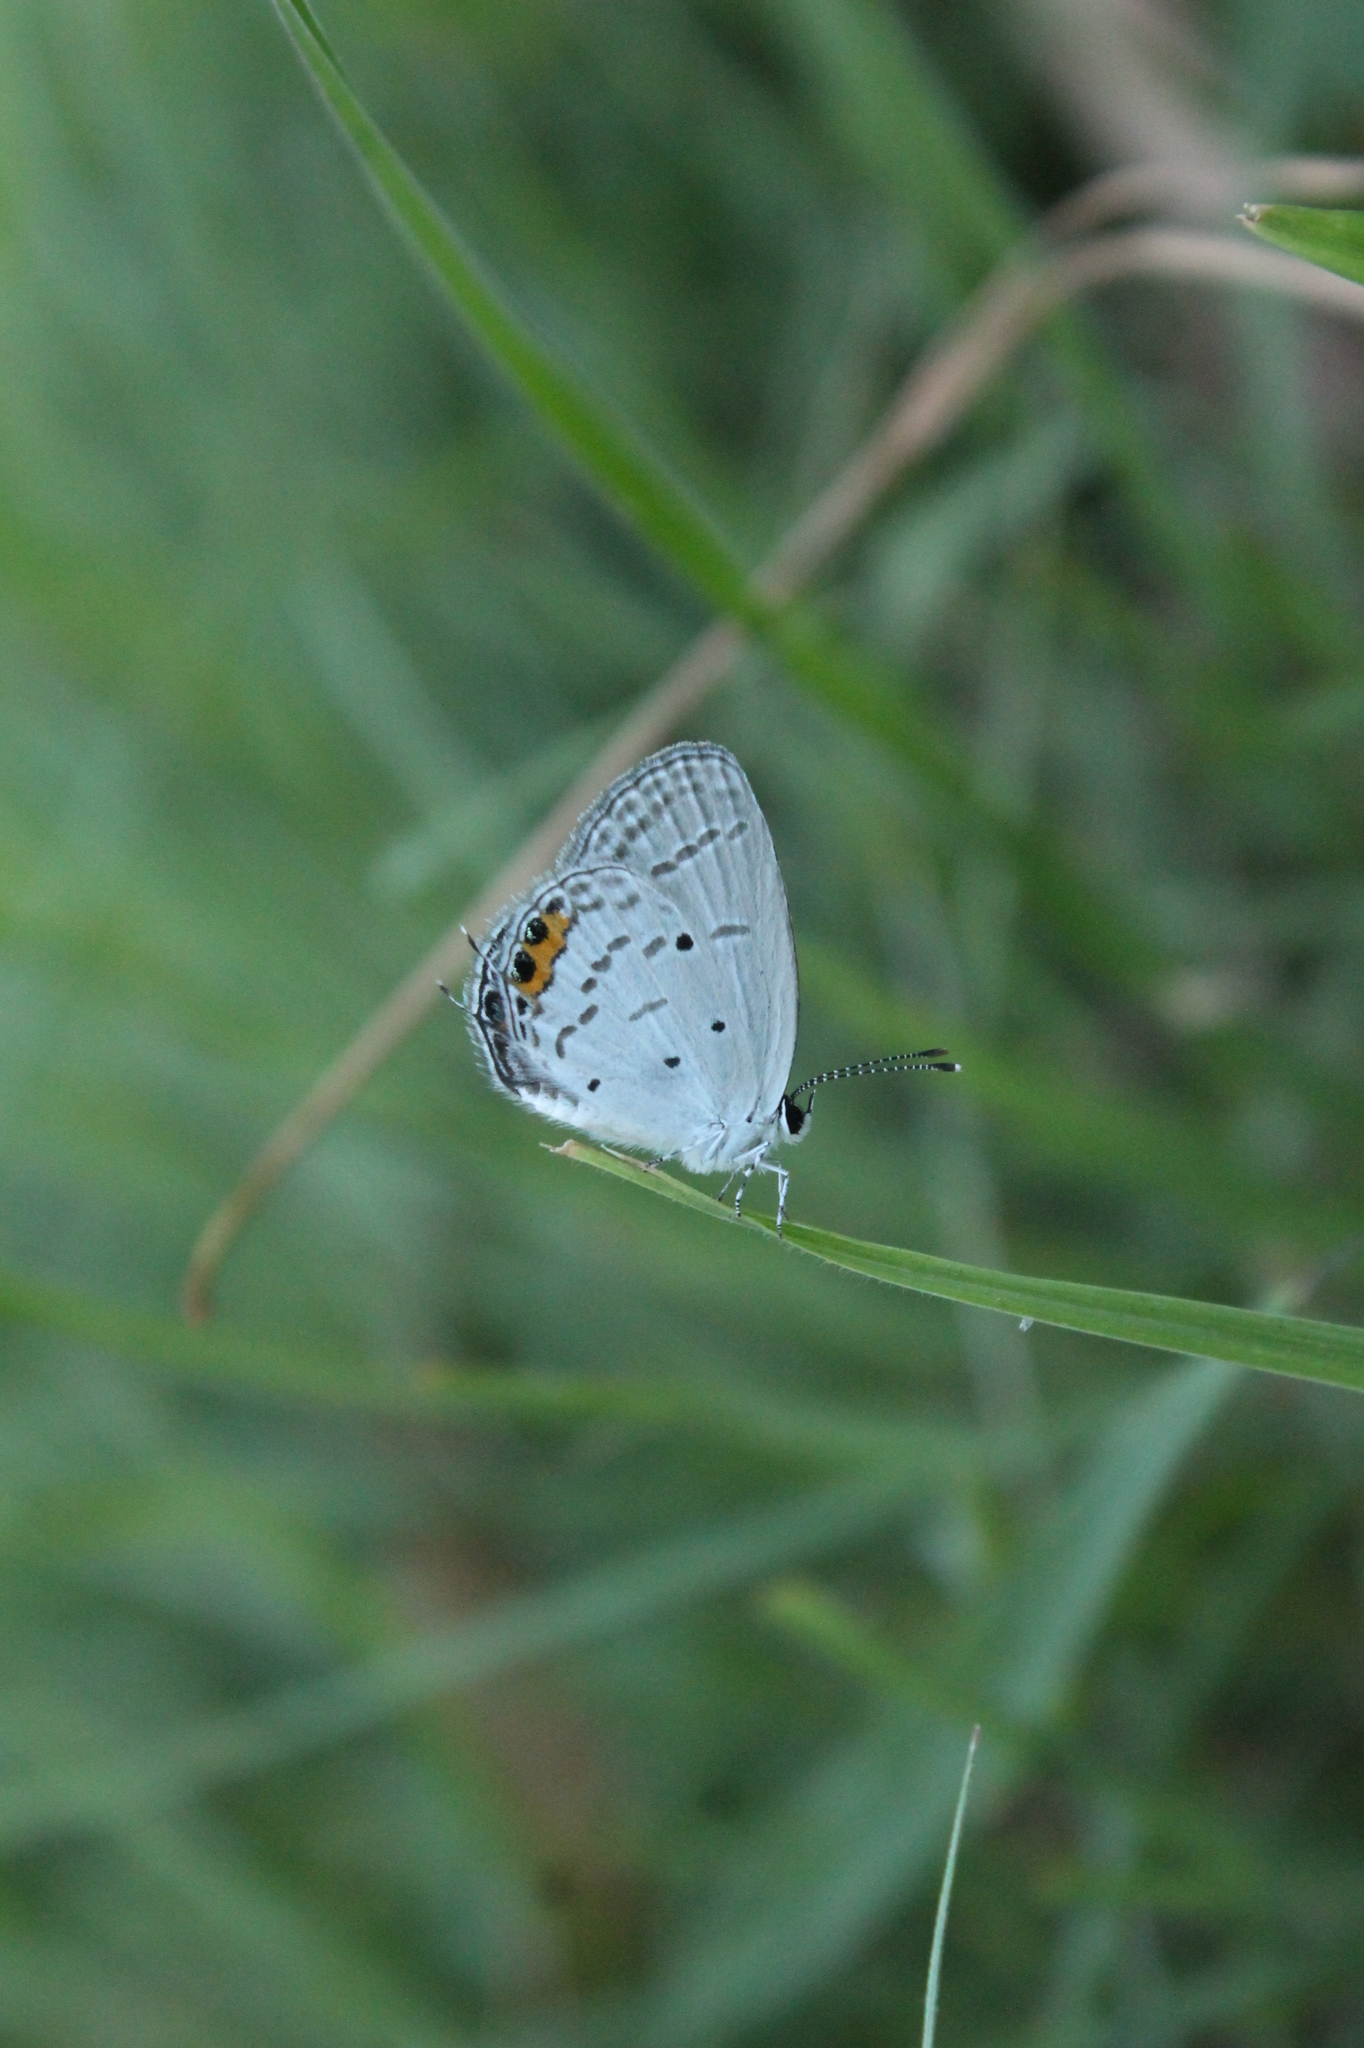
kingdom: Animalia
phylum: Arthropoda
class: Insecta
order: Lepidoptera
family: Lycaenidae
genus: Everes
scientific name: Everes lacturnus
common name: Orange-tipped pea-blue
